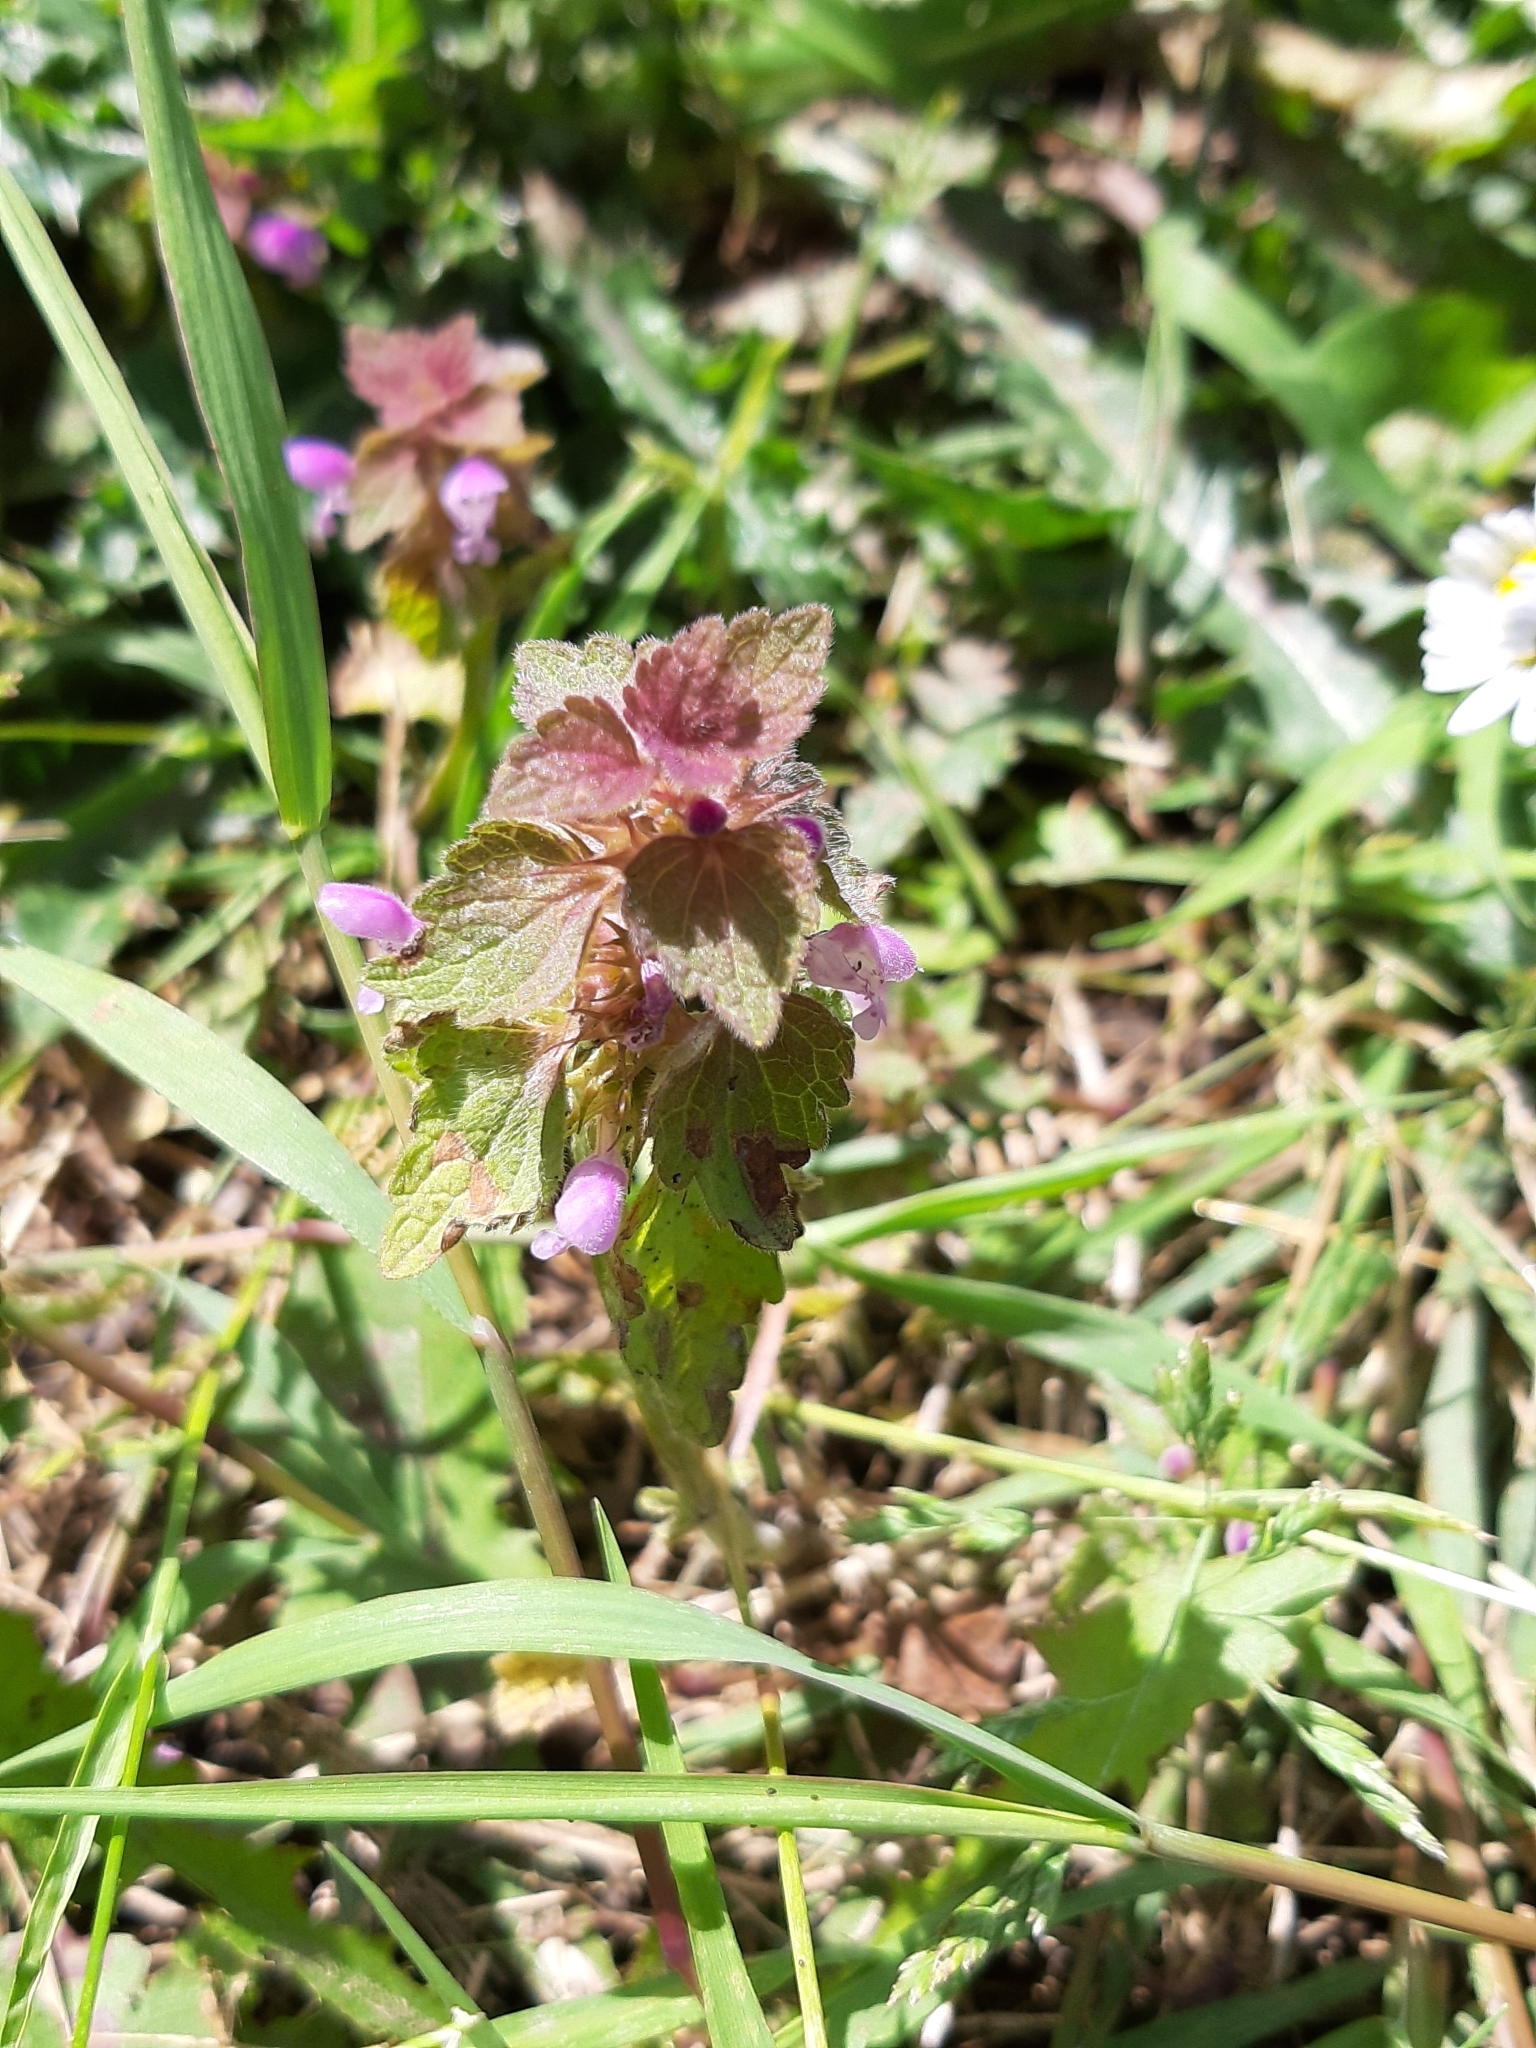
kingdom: Plantae
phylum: Tracheophyta
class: Magnoliopsida
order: Lamiales
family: Lamiaceae
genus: Lamium
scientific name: Lamium purpureum
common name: Red dead-nettle
